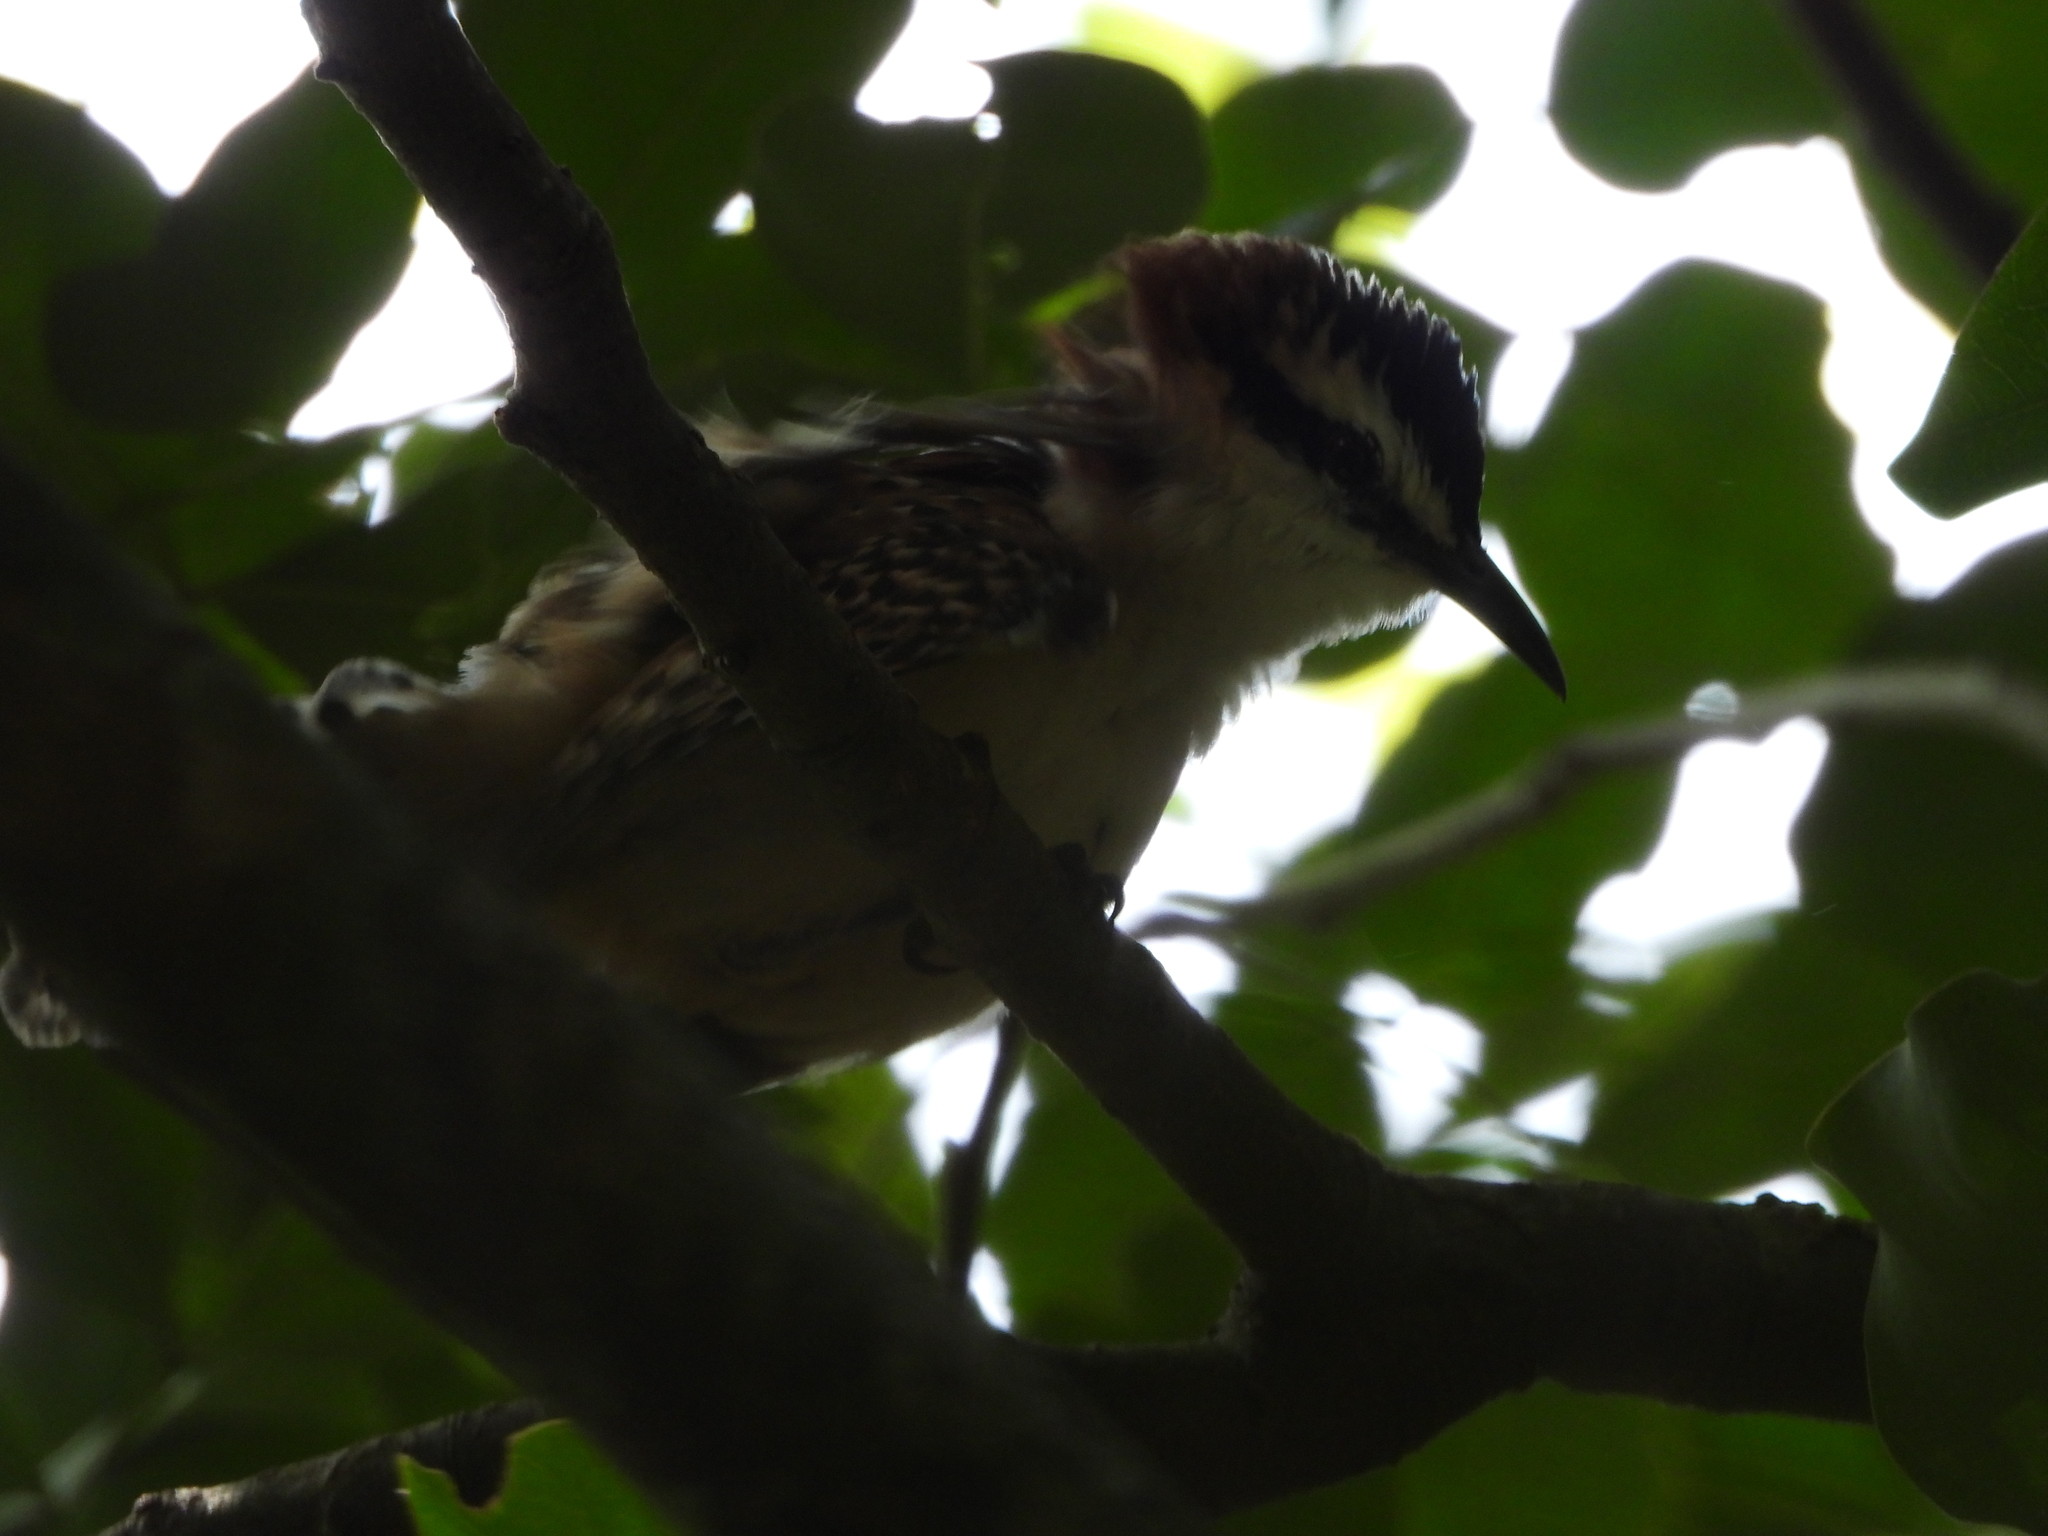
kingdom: Animalia
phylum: Chordata
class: Aves
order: Passeriformes
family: Troglodytidae
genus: Campylorhynchus
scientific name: Campylorhynchus rufinucha
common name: Rufous-naped wren
